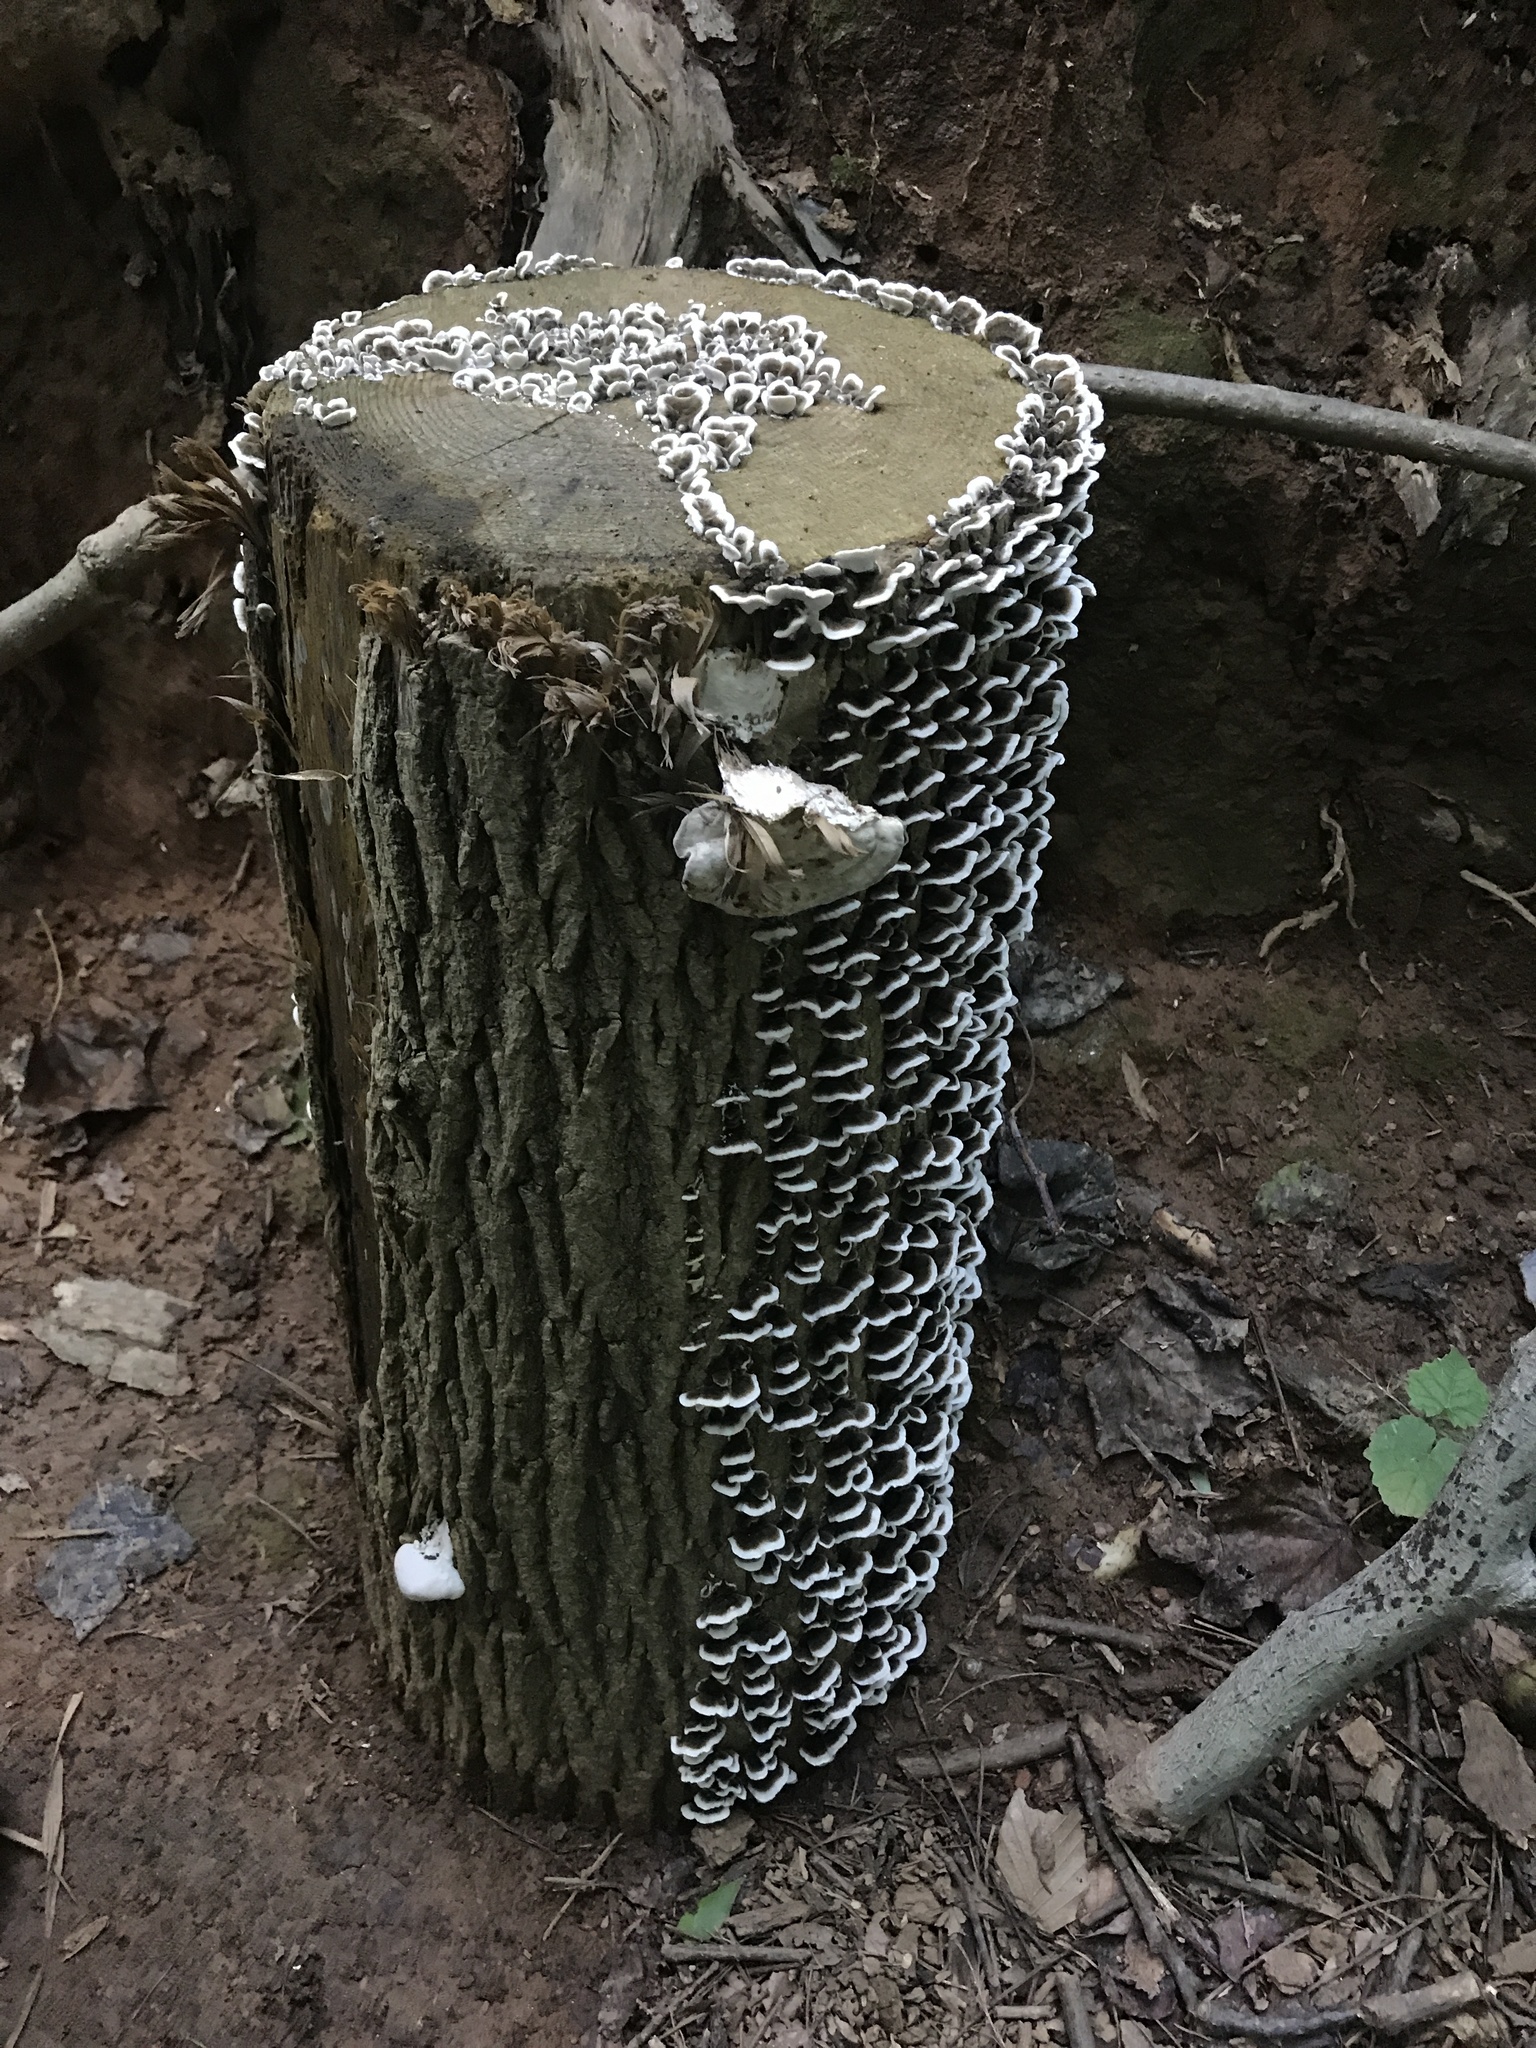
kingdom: Fungi
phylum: Basidiomycota
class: Agaricomycetes
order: Polyporales
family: Polyporaceae
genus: Trametes
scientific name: Trametes versicolor
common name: Turkeytail
